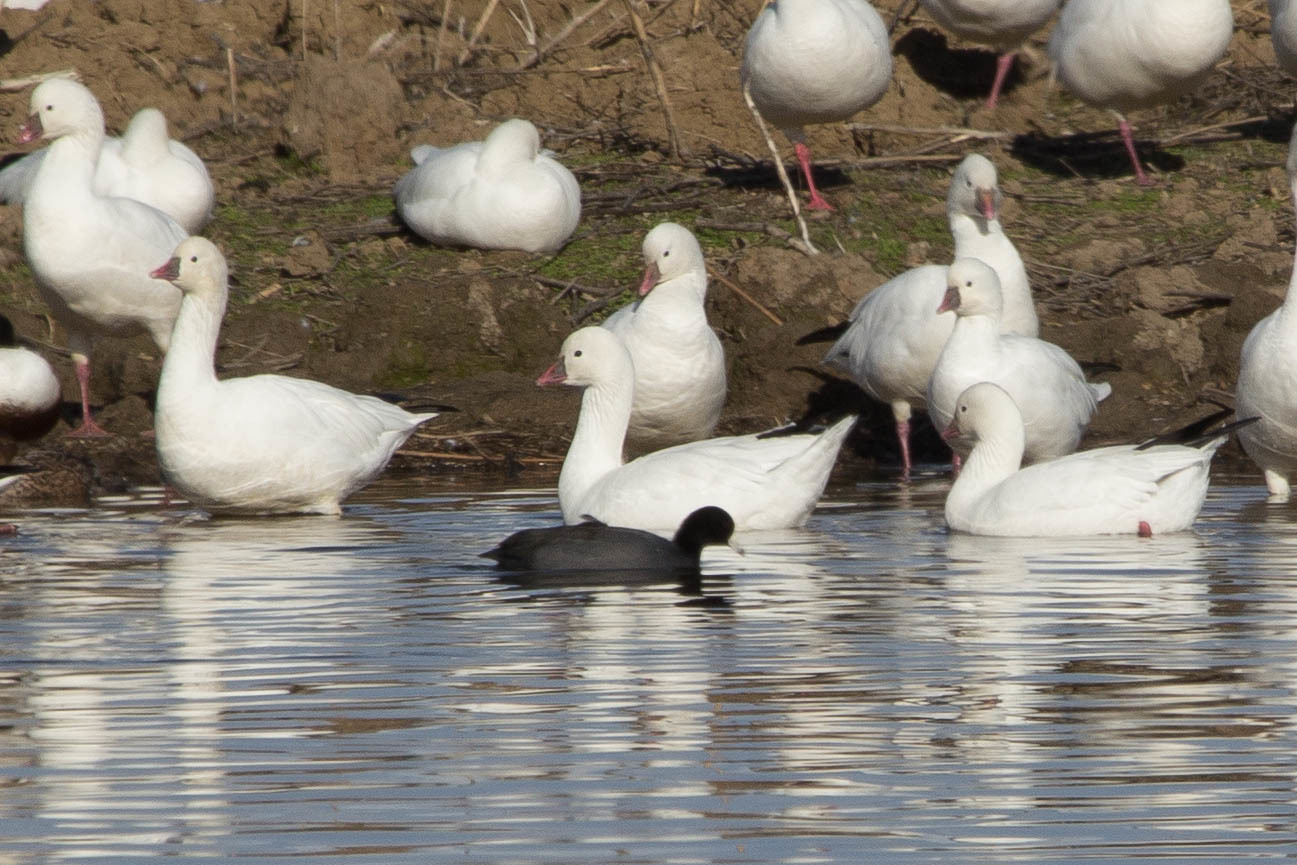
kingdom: Animalia
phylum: Chordata
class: Aves
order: Anseriformes
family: Anatidae
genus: Anser
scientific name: Anser rossii
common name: Ross's goose
